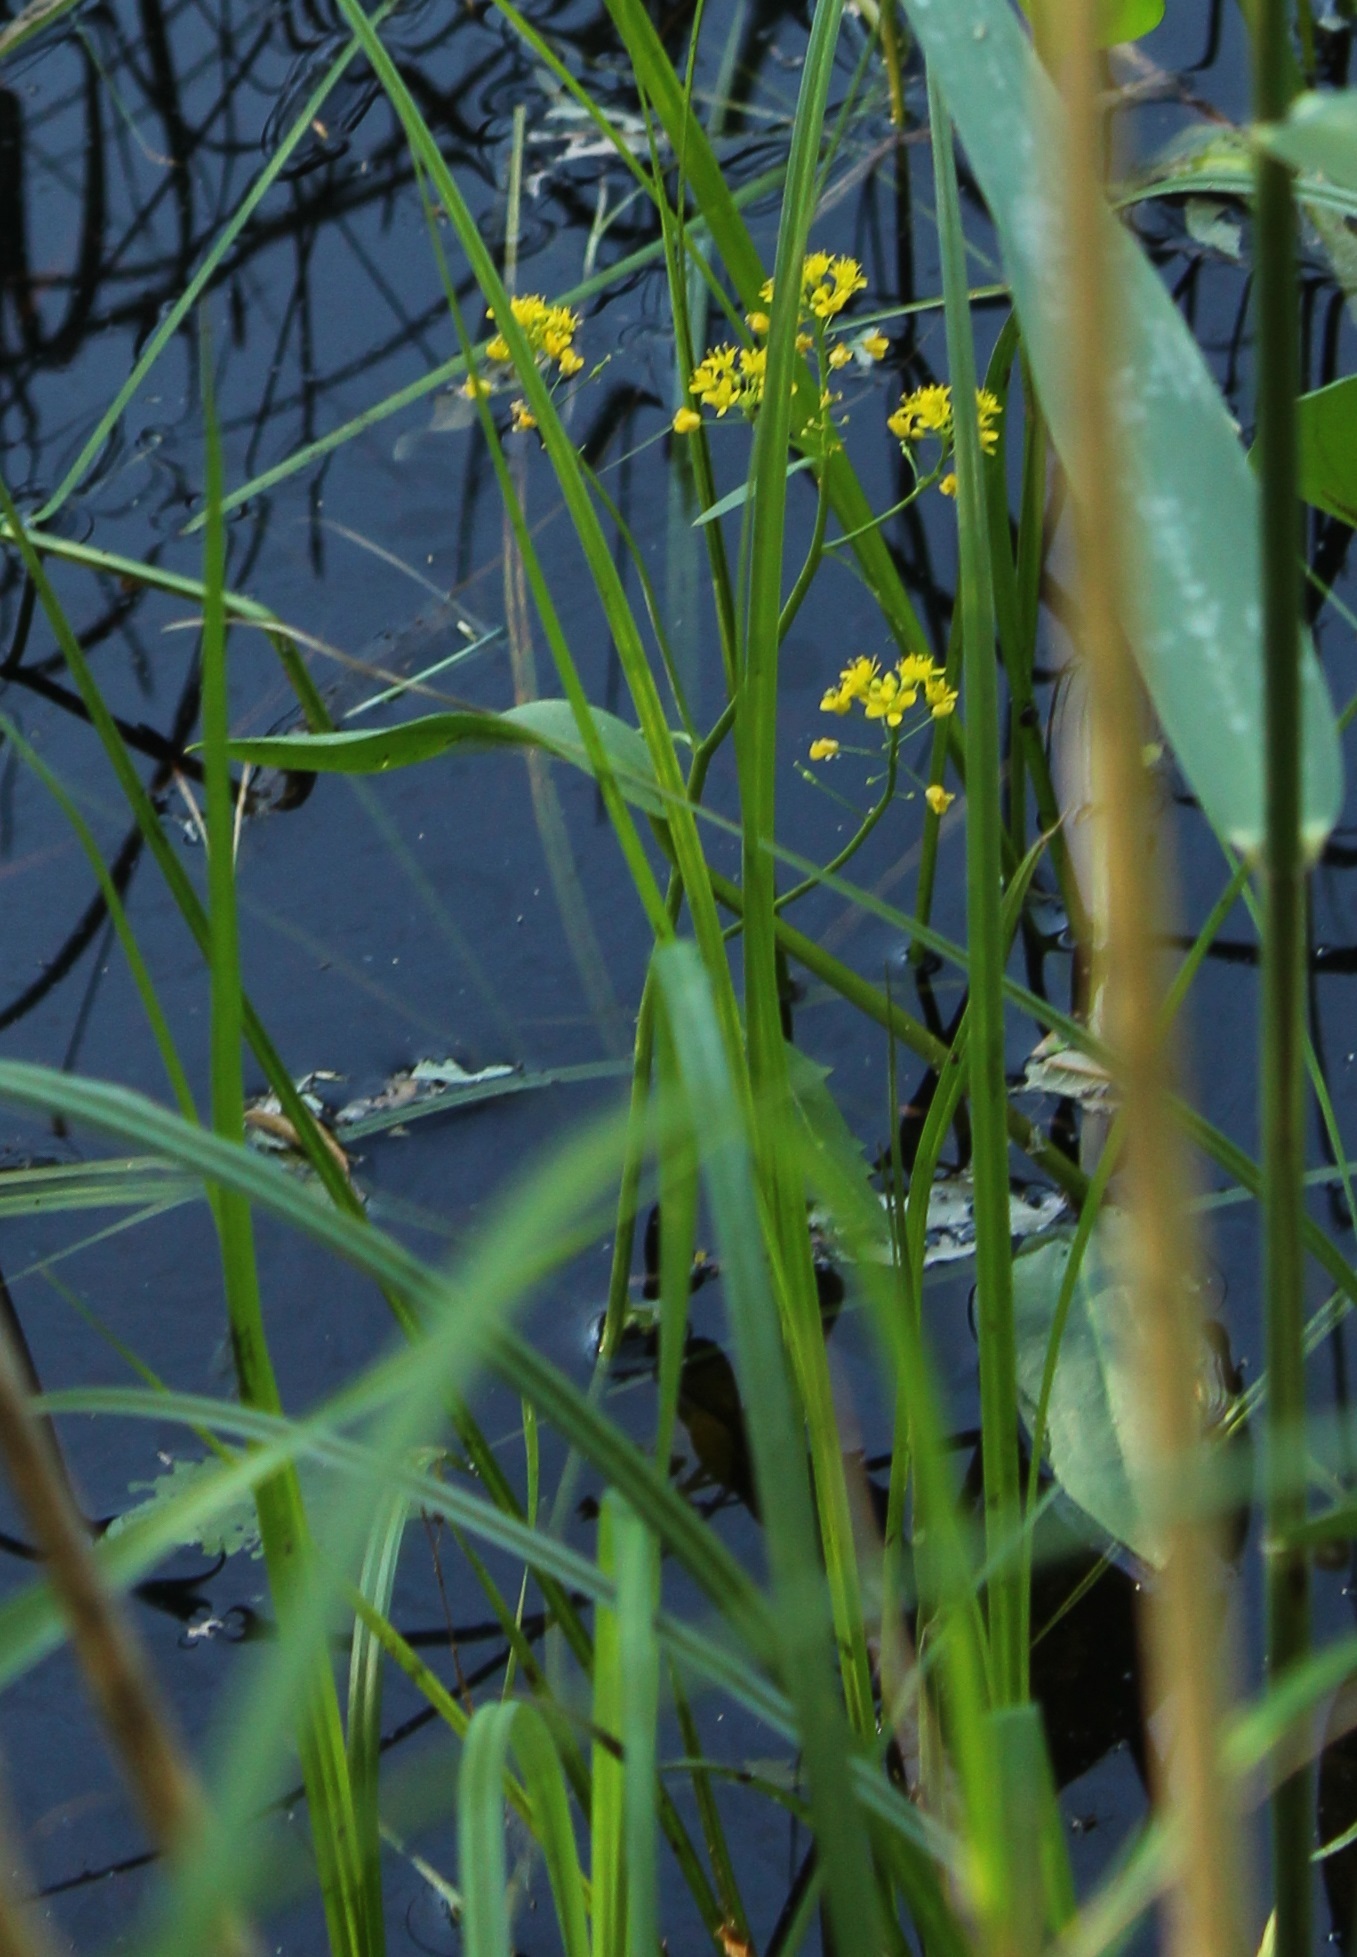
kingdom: Plantae
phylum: Tracheophyta
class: Magnoliopsida
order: Brassicales
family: Brassicaceae
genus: Rorippa
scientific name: Rorippa amphibia
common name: Great yellow-cress
